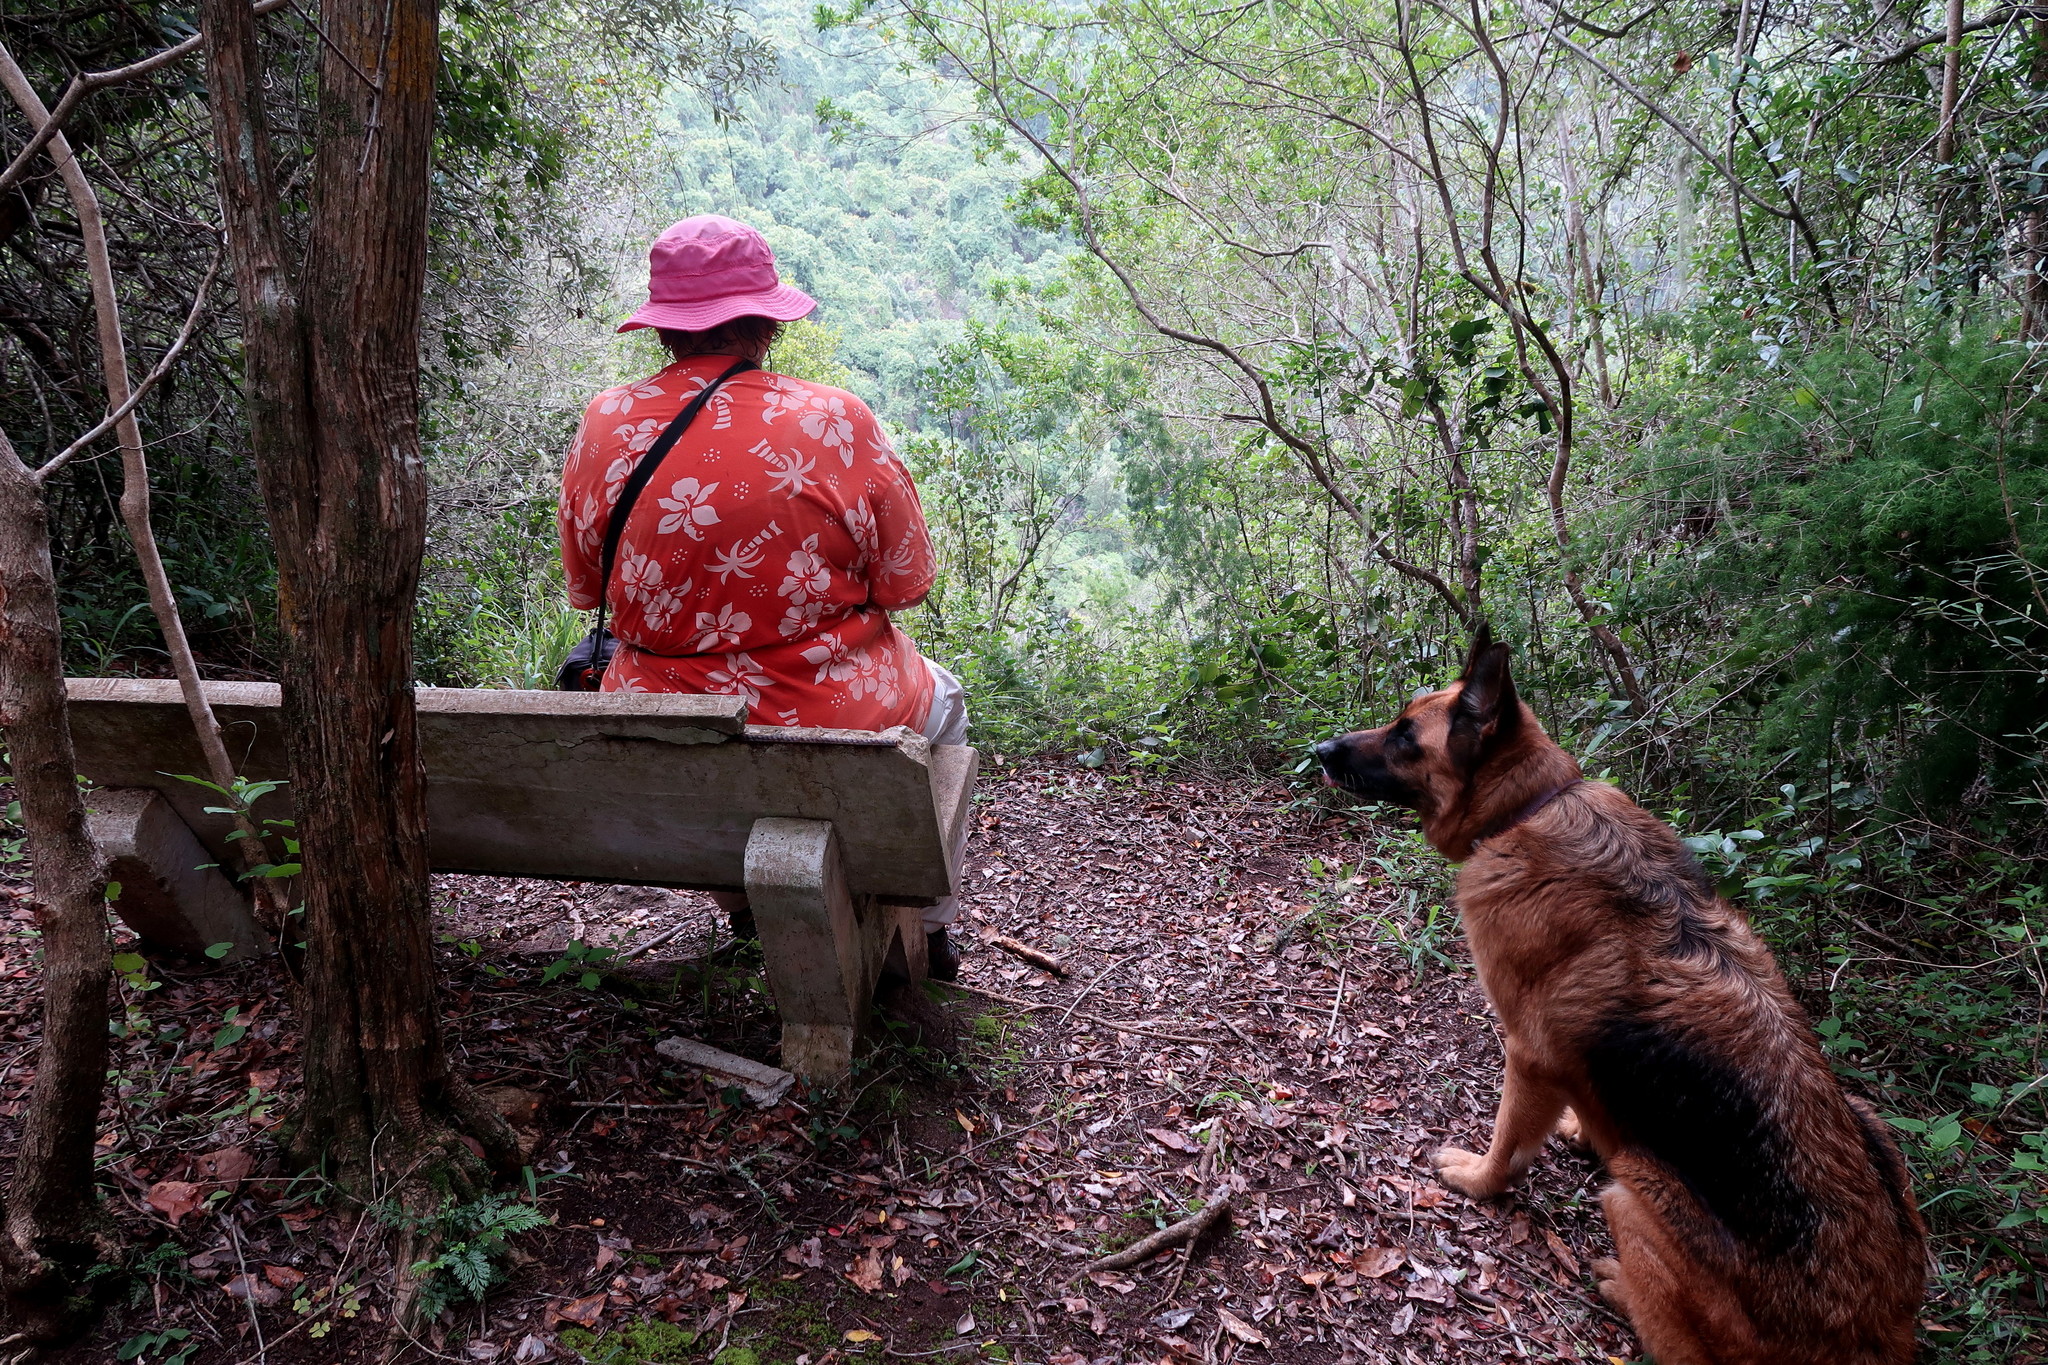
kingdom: Plantae
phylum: Tracheophyta
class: Magnoliopsida
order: Lamiales
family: Scrophulariaceae
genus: Buddleja
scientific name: Buddleja saligna
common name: False olive
